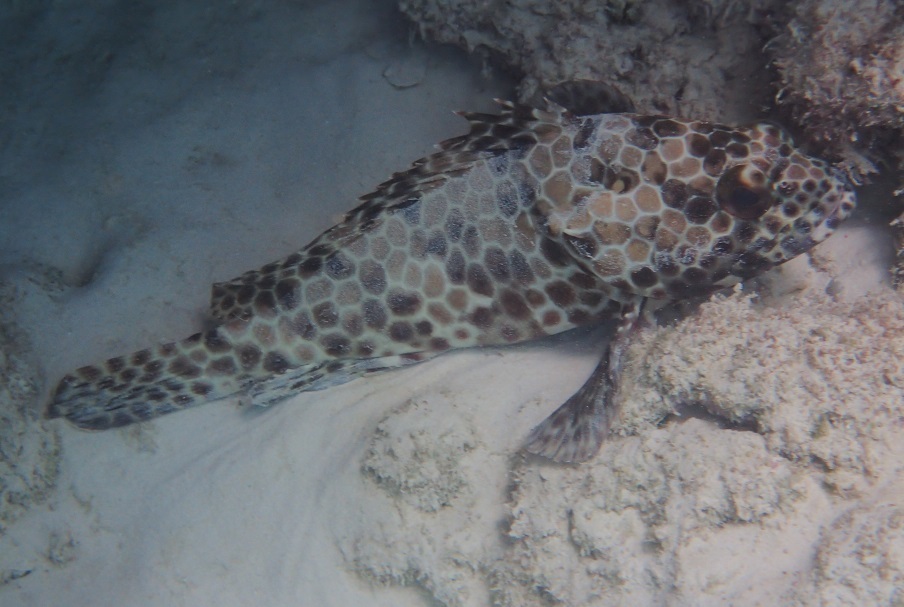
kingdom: Animalia
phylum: Chordata
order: Perciformes
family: Serranidae
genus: Epinephelus
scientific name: Epinephelus quoyanus
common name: Longfin grouper
